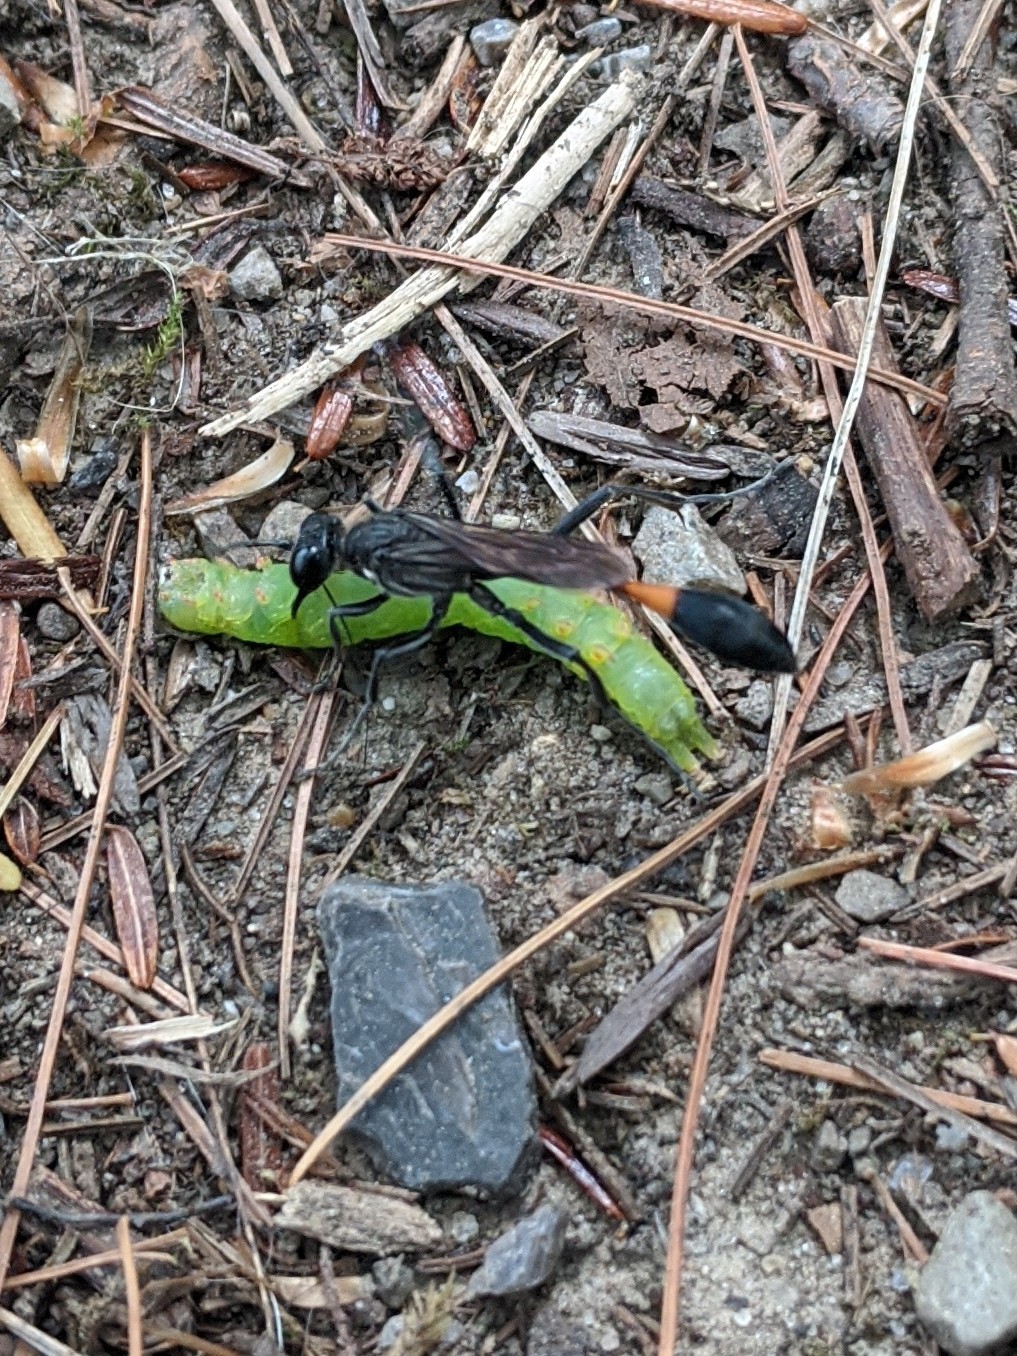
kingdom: Animalia
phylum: Arthropoda
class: Insecta
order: Hymenoptera
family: Sphecidae
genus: Ammophila
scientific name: Ammophila procera
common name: Common thread-waisted wasp
